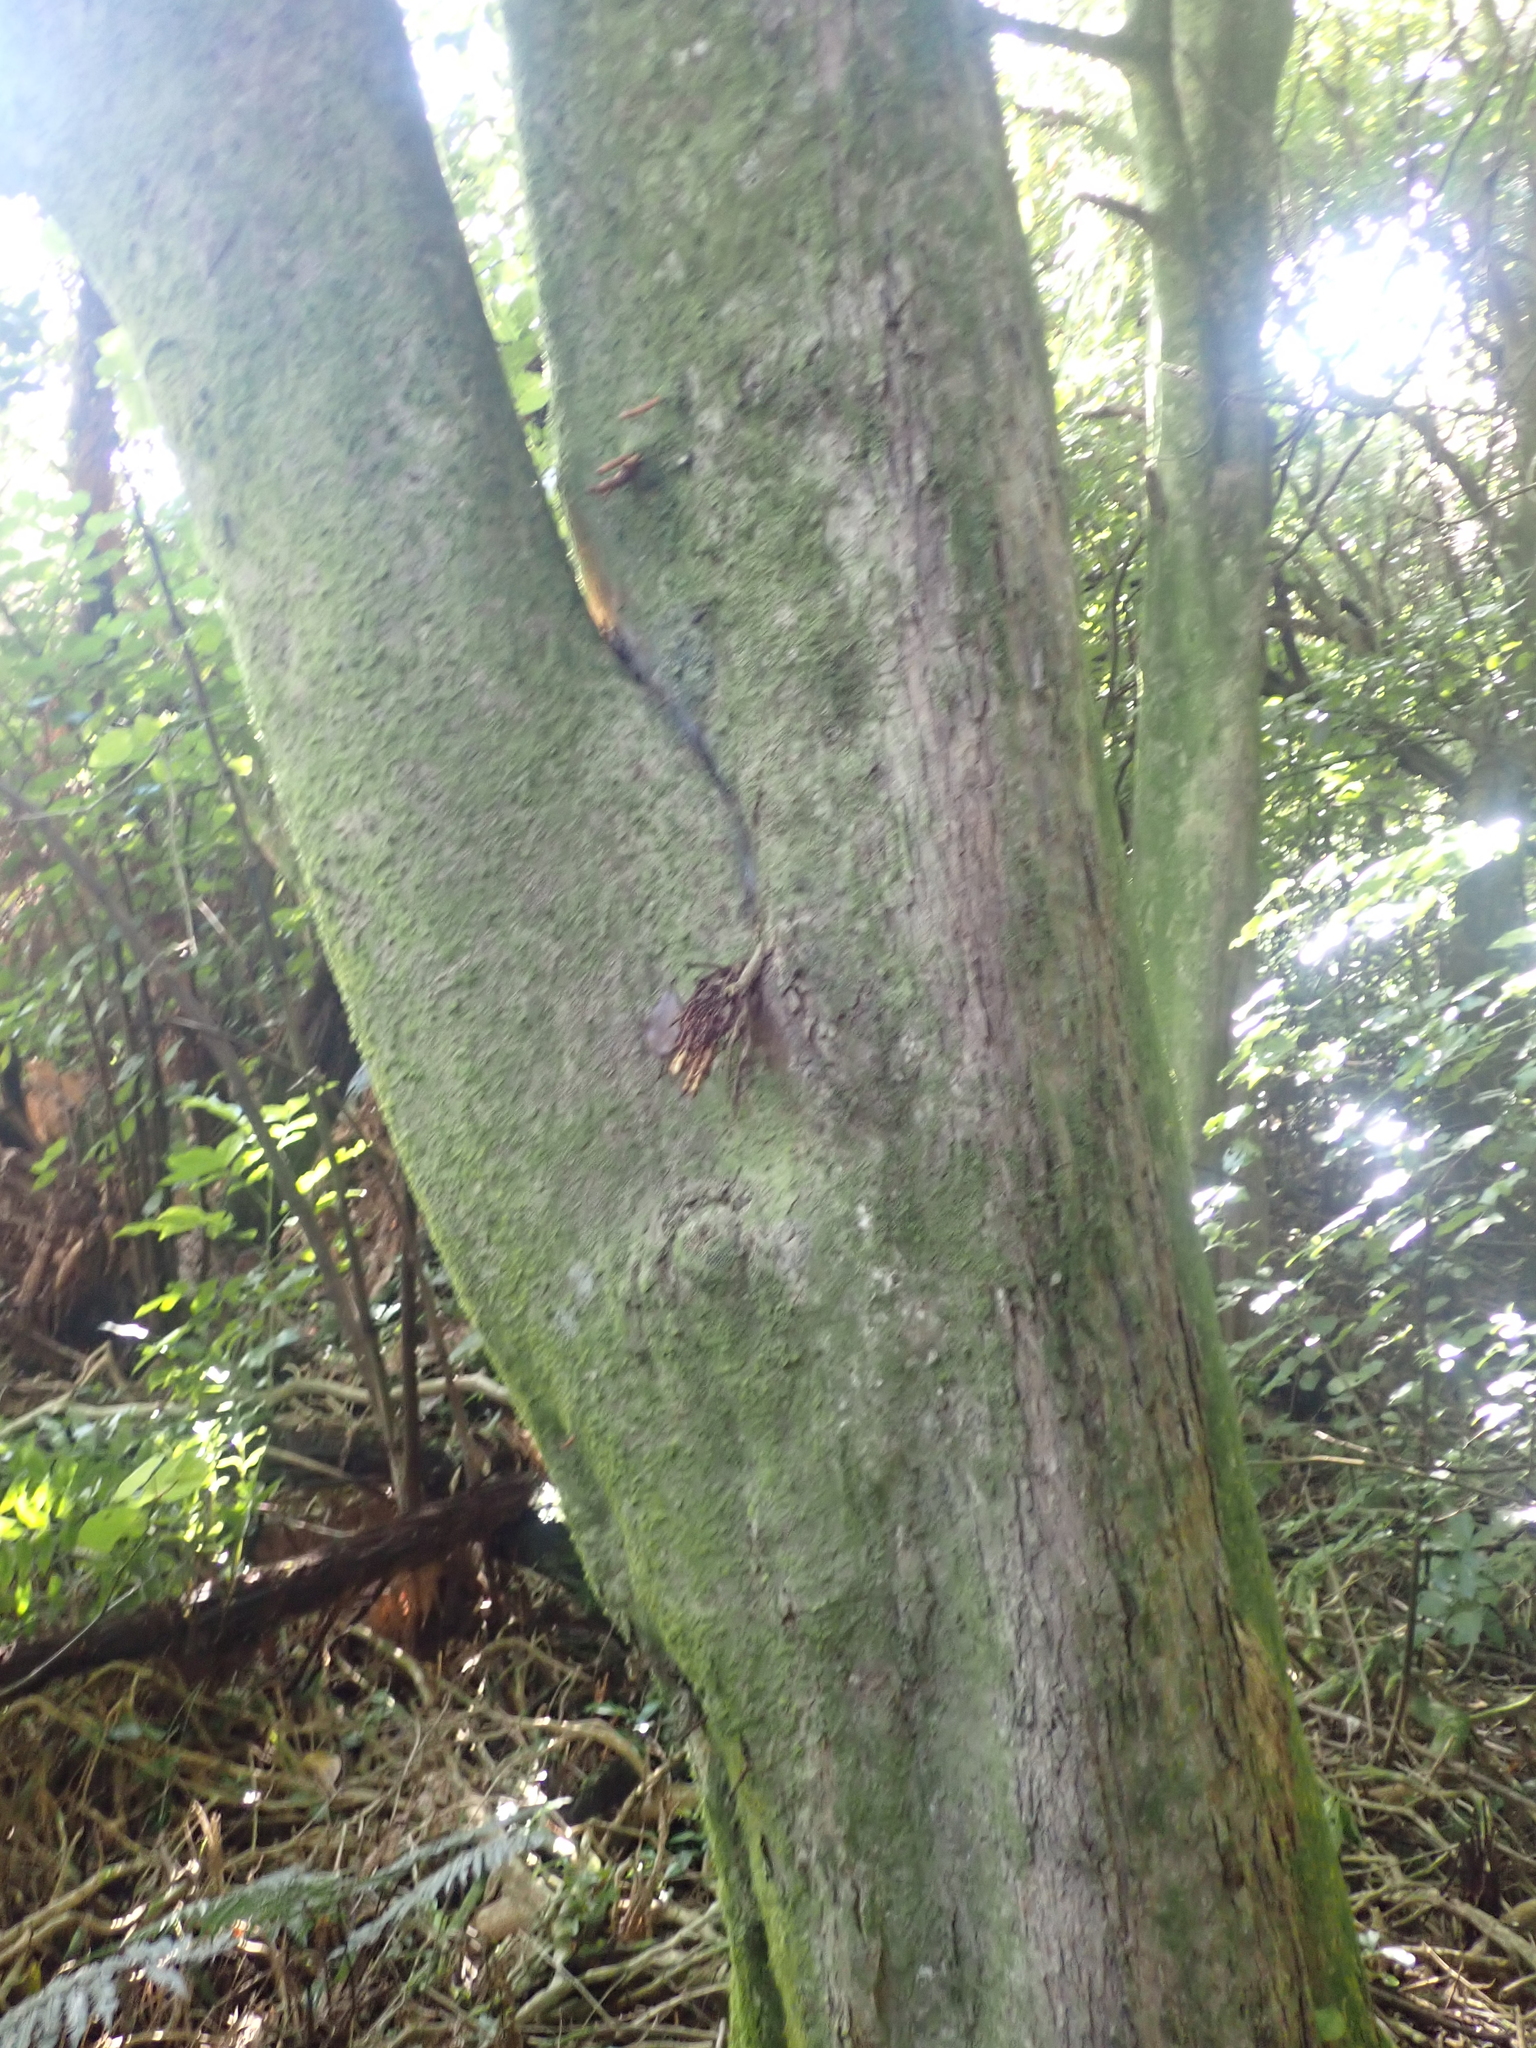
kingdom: Plantae
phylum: Tracheophyta
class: Magnoliopsida
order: Myrtales
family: Myrtaceae
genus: Syzygium
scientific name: Syzygium maire
